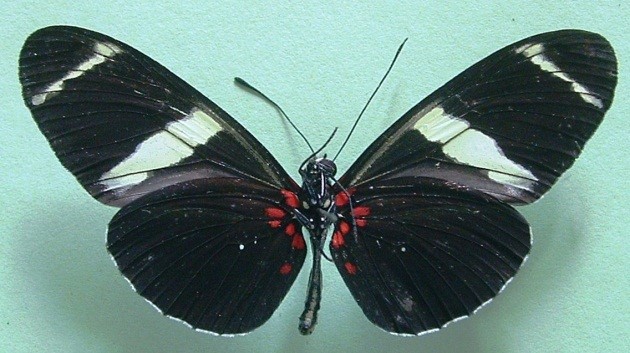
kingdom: Animalia
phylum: Arthropoda
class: Insecta
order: Lepidoptera
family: Nymphalidae
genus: Heliconius
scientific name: Heliconius sara
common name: Sara longwing
